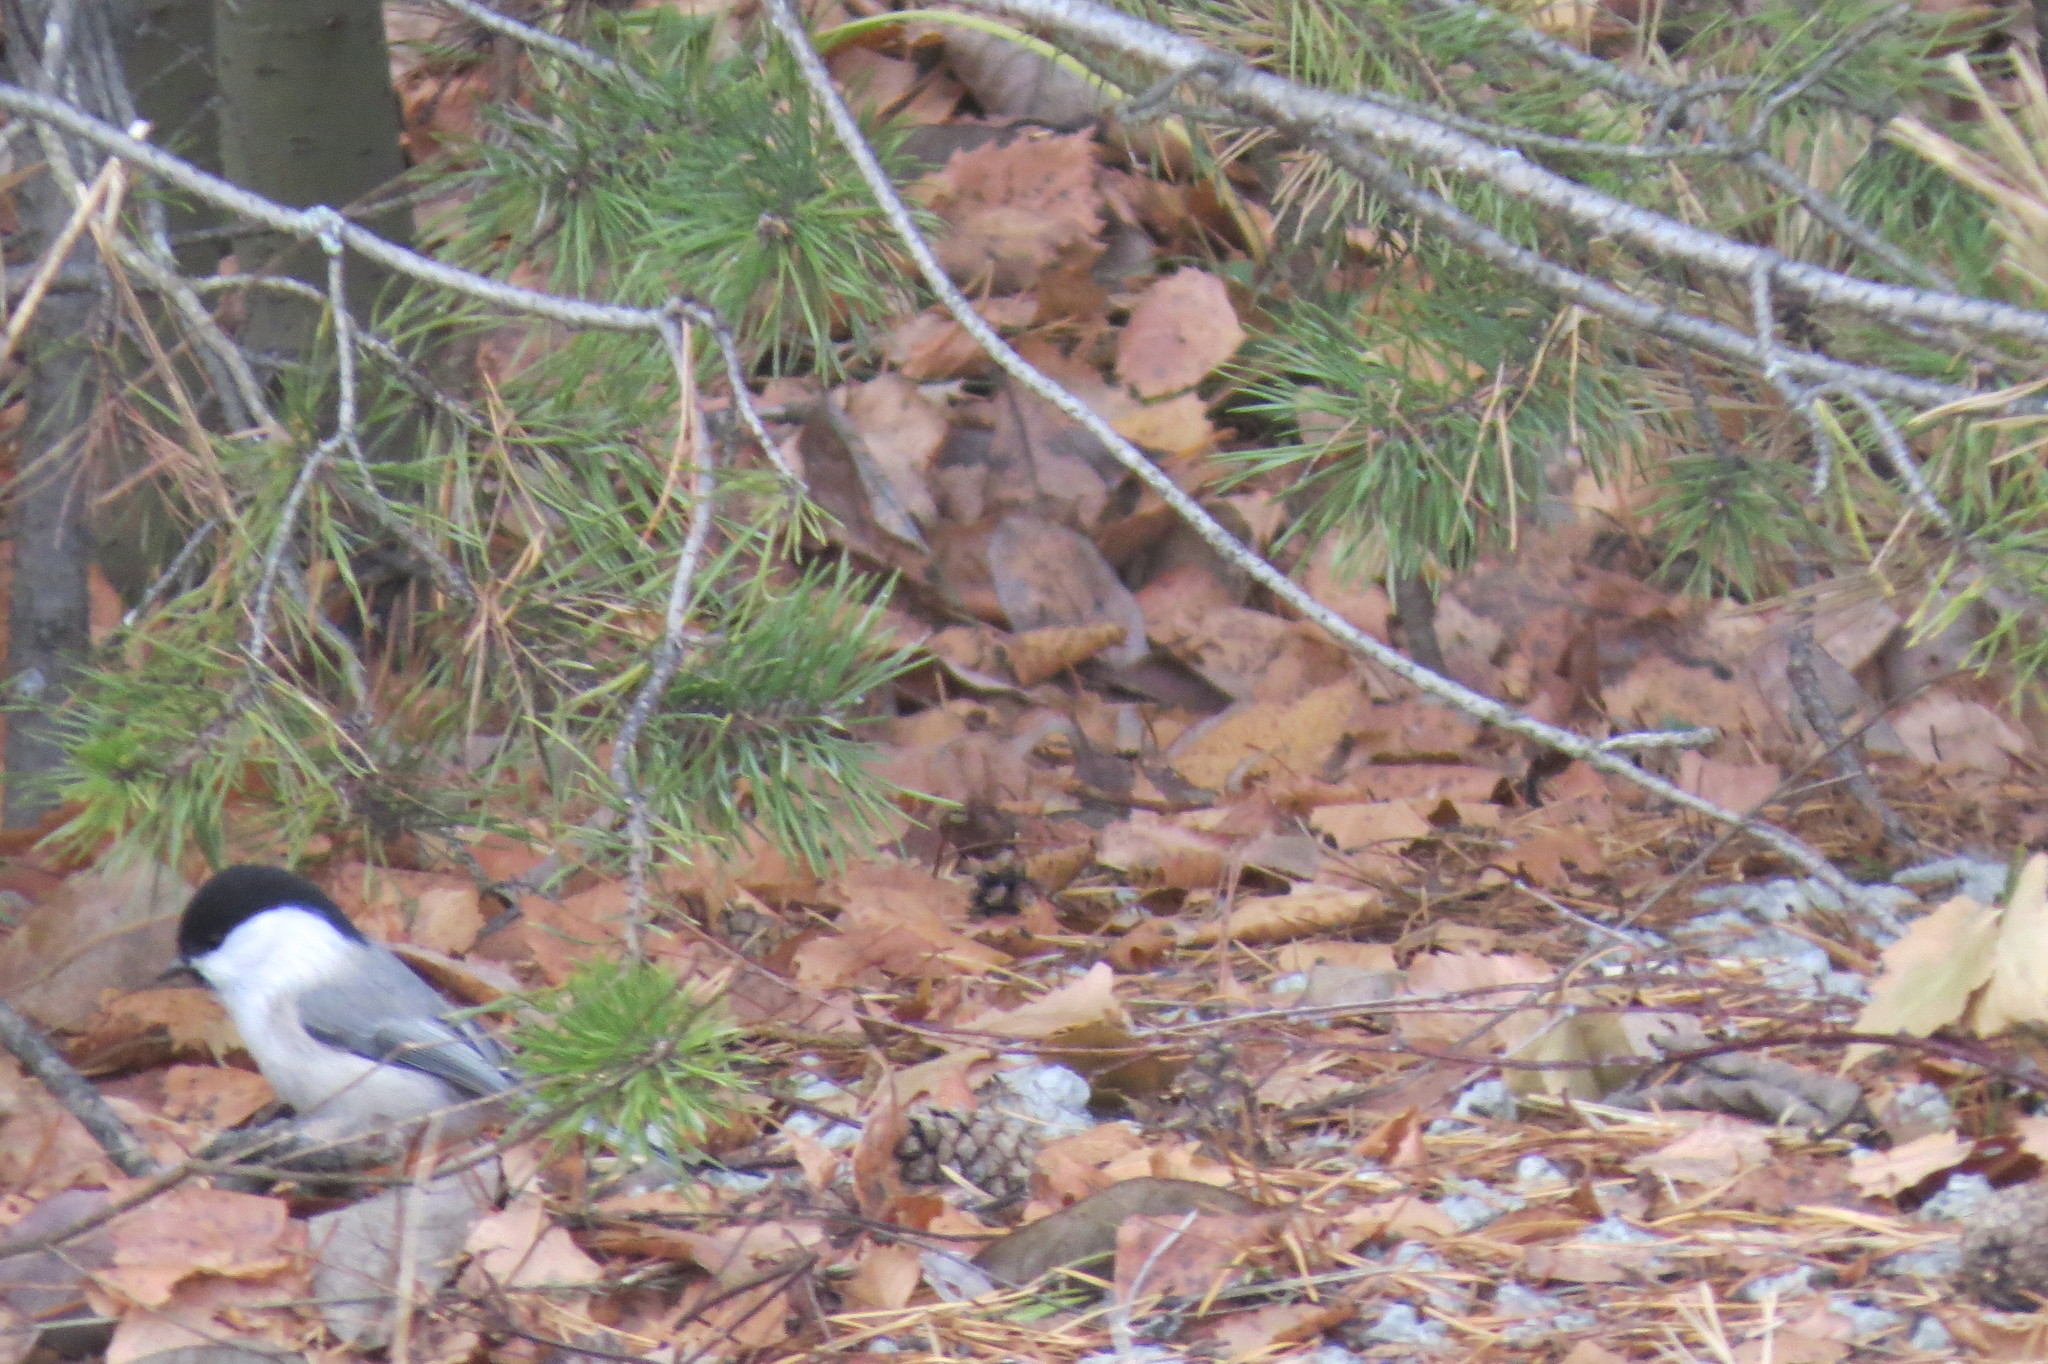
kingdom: Animalia
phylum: Chordata
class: Aves
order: Passeriformes
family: Paridae
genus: Poecile
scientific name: Poecile montanus
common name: Willow tit
